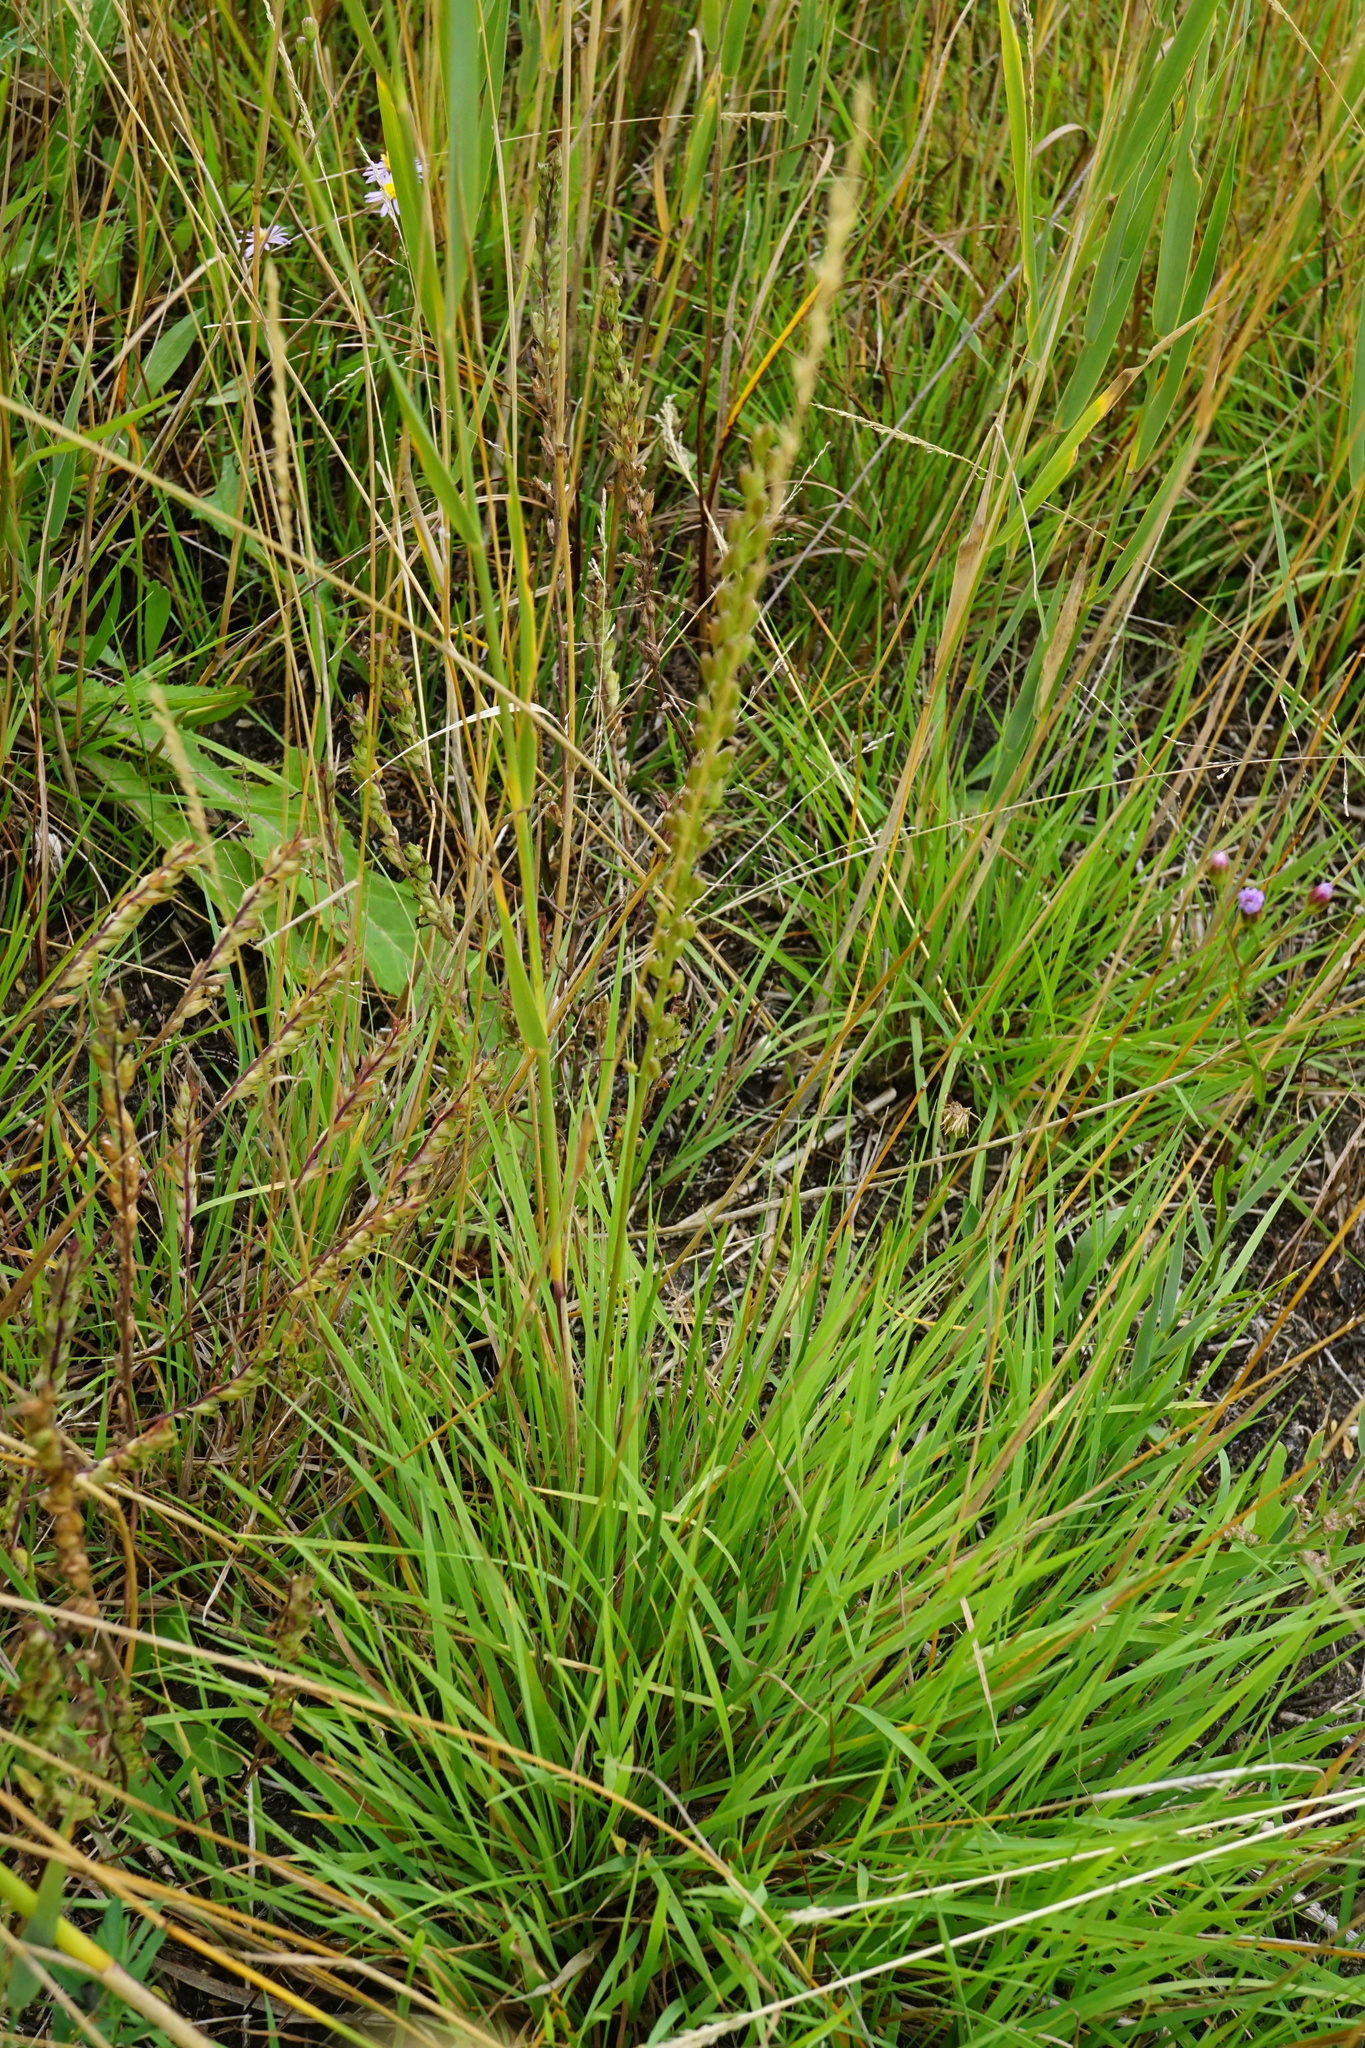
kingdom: Plantae
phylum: Tracheophyta
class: Liliopsida
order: Alismatales
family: Juncaginaceae
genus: Triglochin
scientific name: Triglochin maritima
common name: Sea arrowgrass
